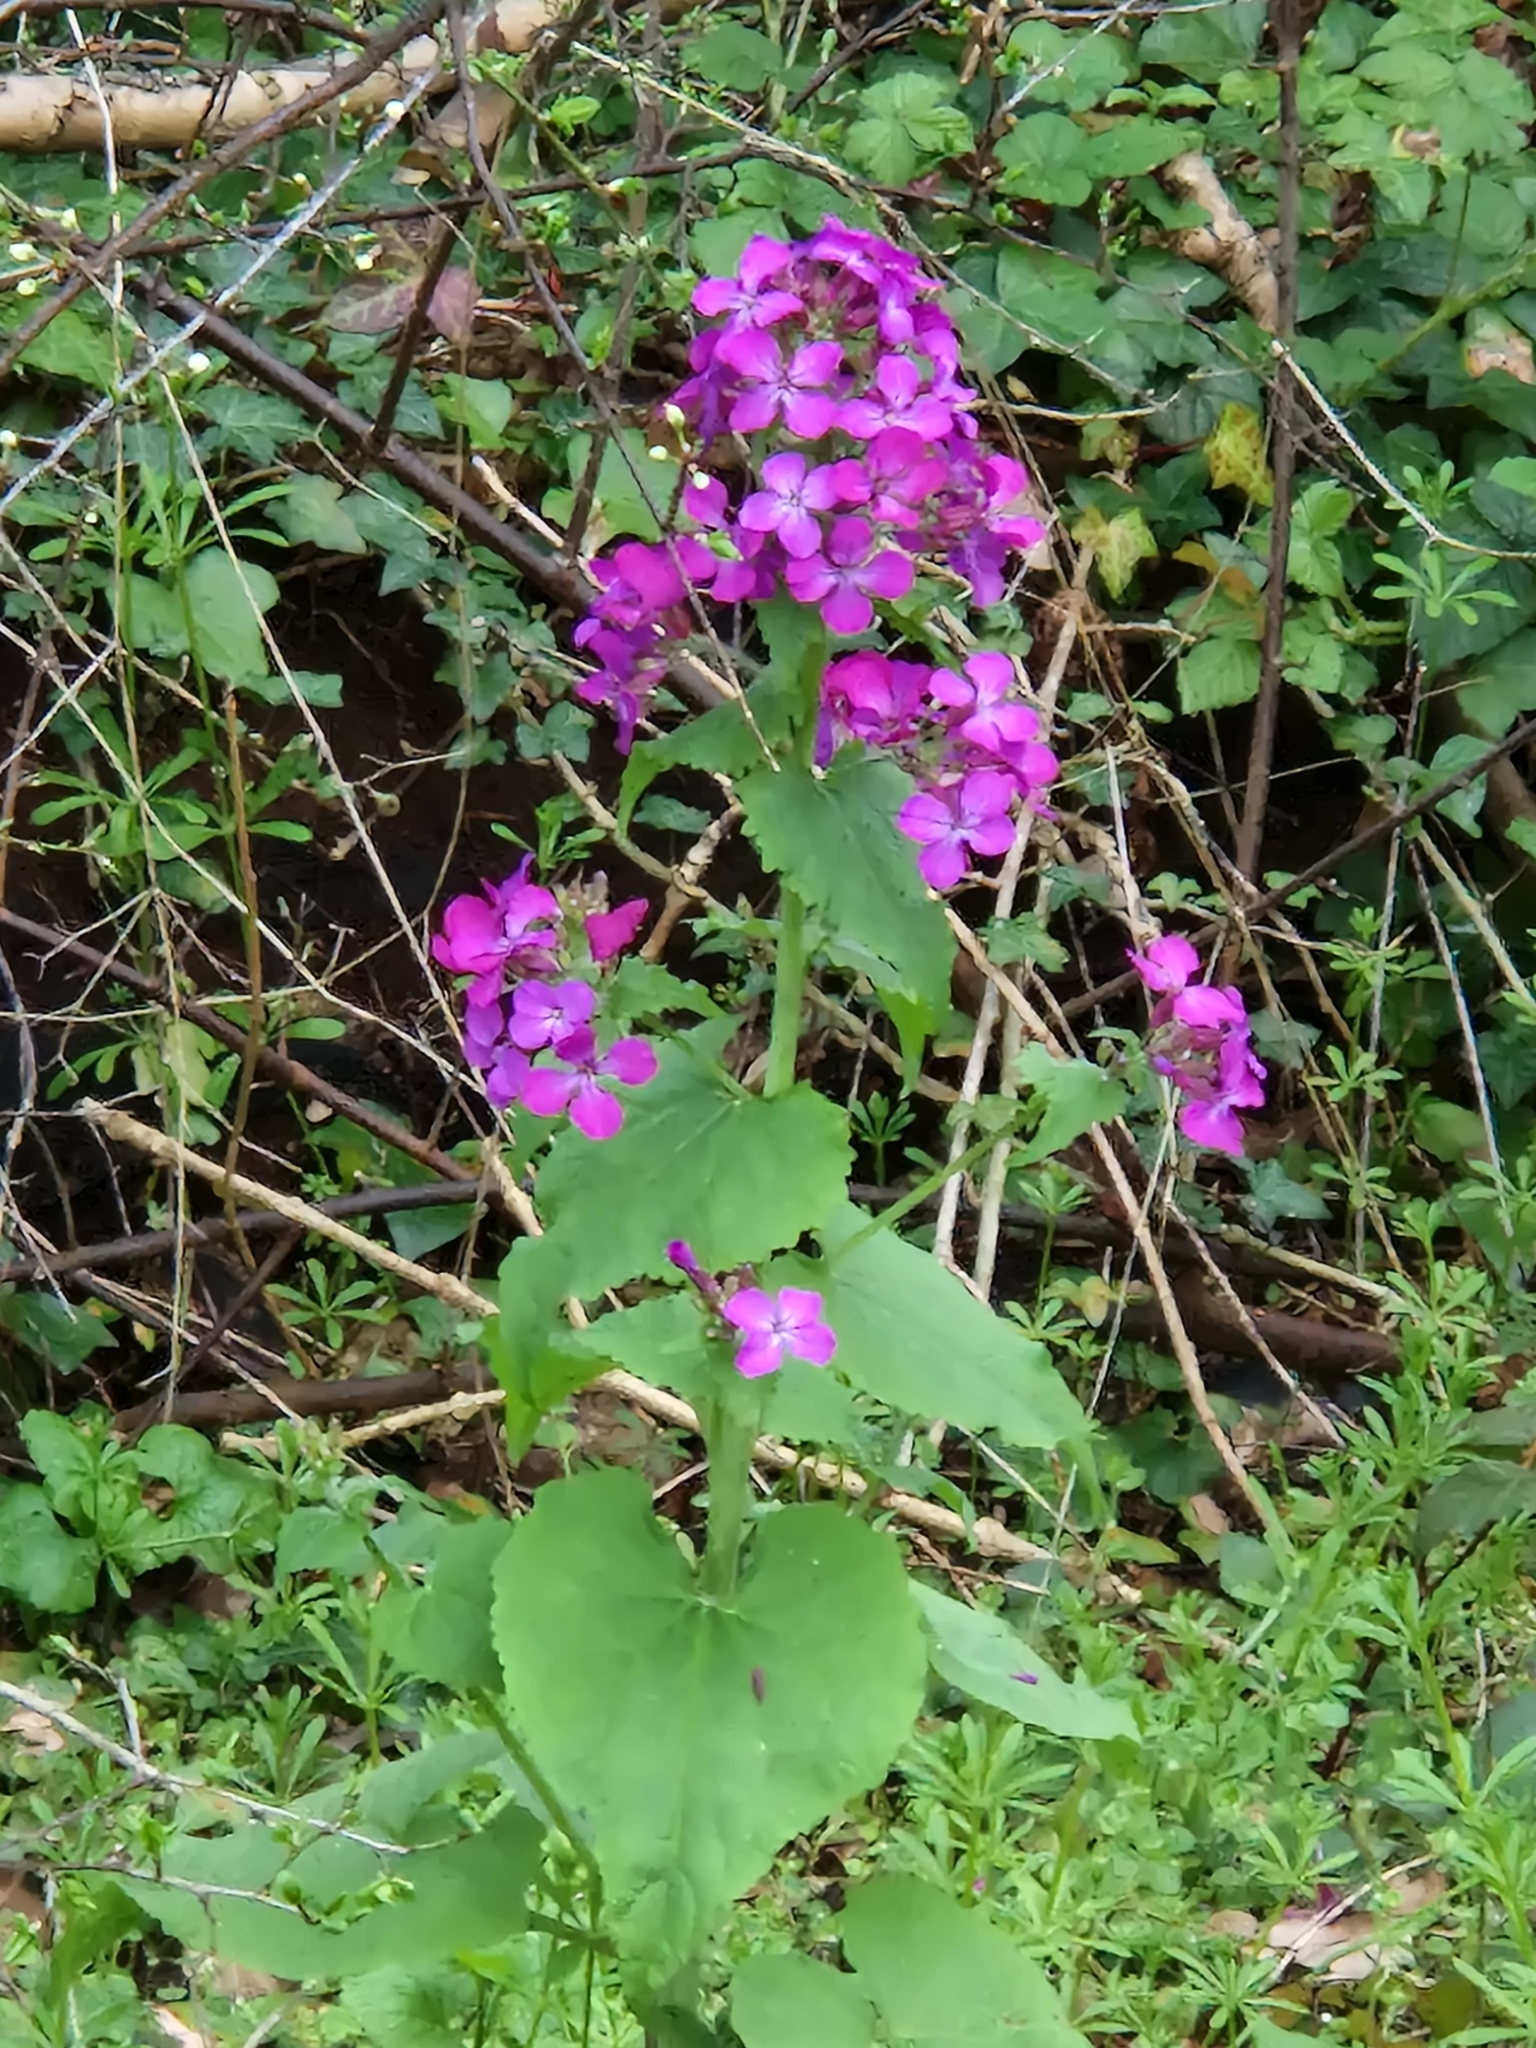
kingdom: Plantae
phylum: Tracheophyta
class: Magnoliopsida
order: Brassicales
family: Brassicaceae
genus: Lunaria
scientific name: Lunaria annua
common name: Honesty
